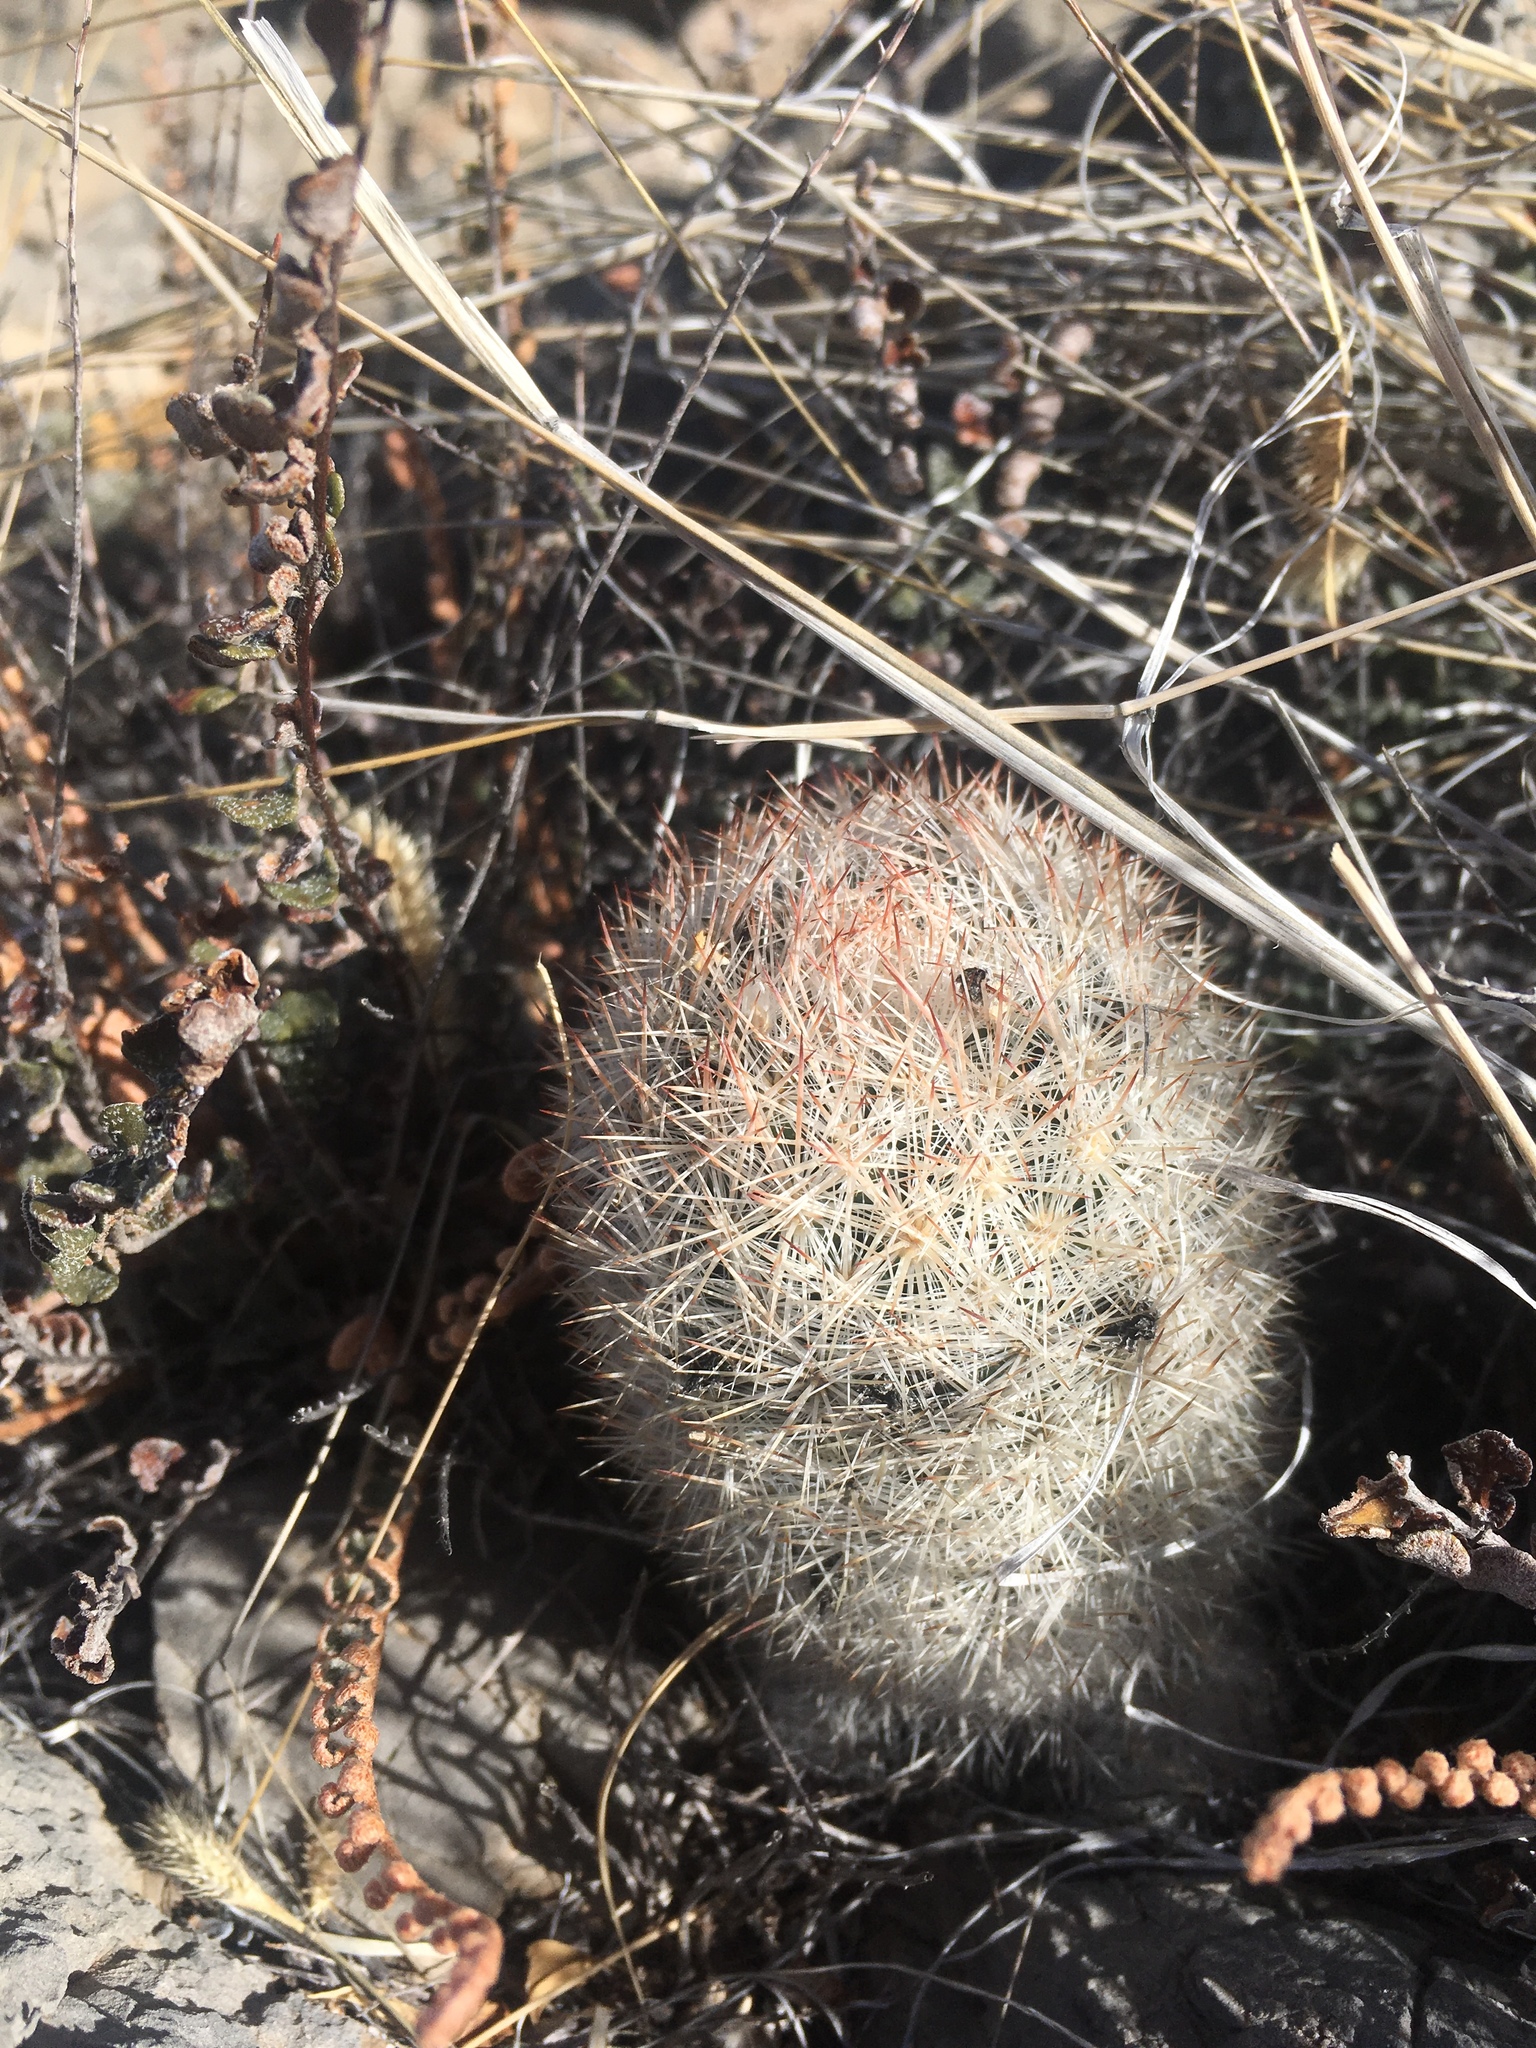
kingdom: Plantae
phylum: Tracheophyta
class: Magnoliopsida
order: Caryophyllales
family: Cactaceae
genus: Pelecyphora
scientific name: Pelecyphora sneedii
